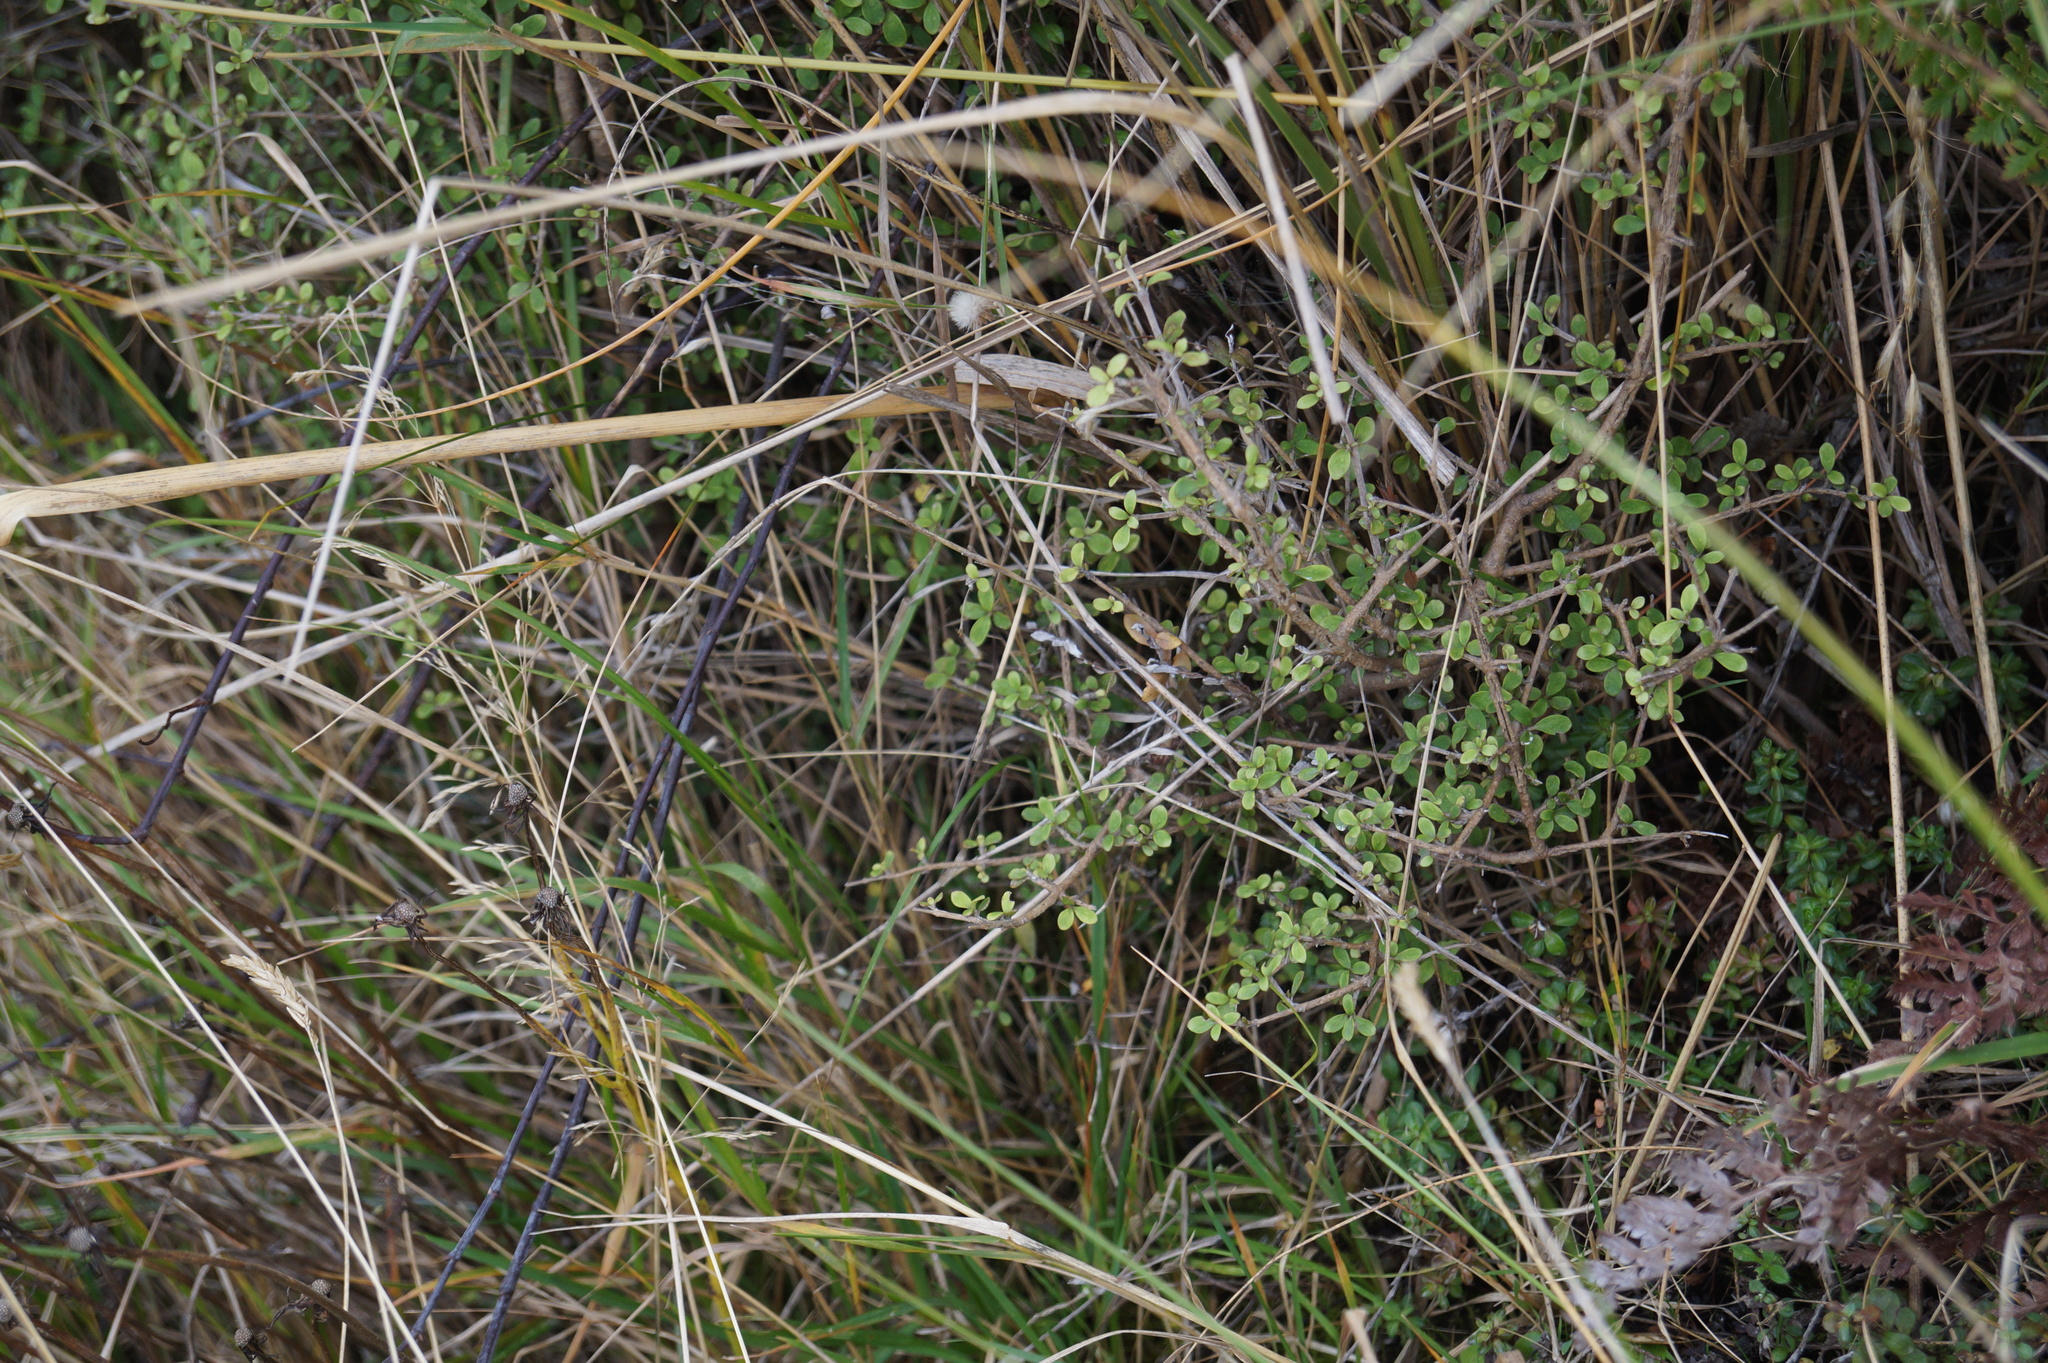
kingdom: Plantae
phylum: Tracheophyta
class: Magnoliopsida
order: Gentianales
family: Rubiaceae
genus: Coprosma
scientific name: Coprosma dumosa
